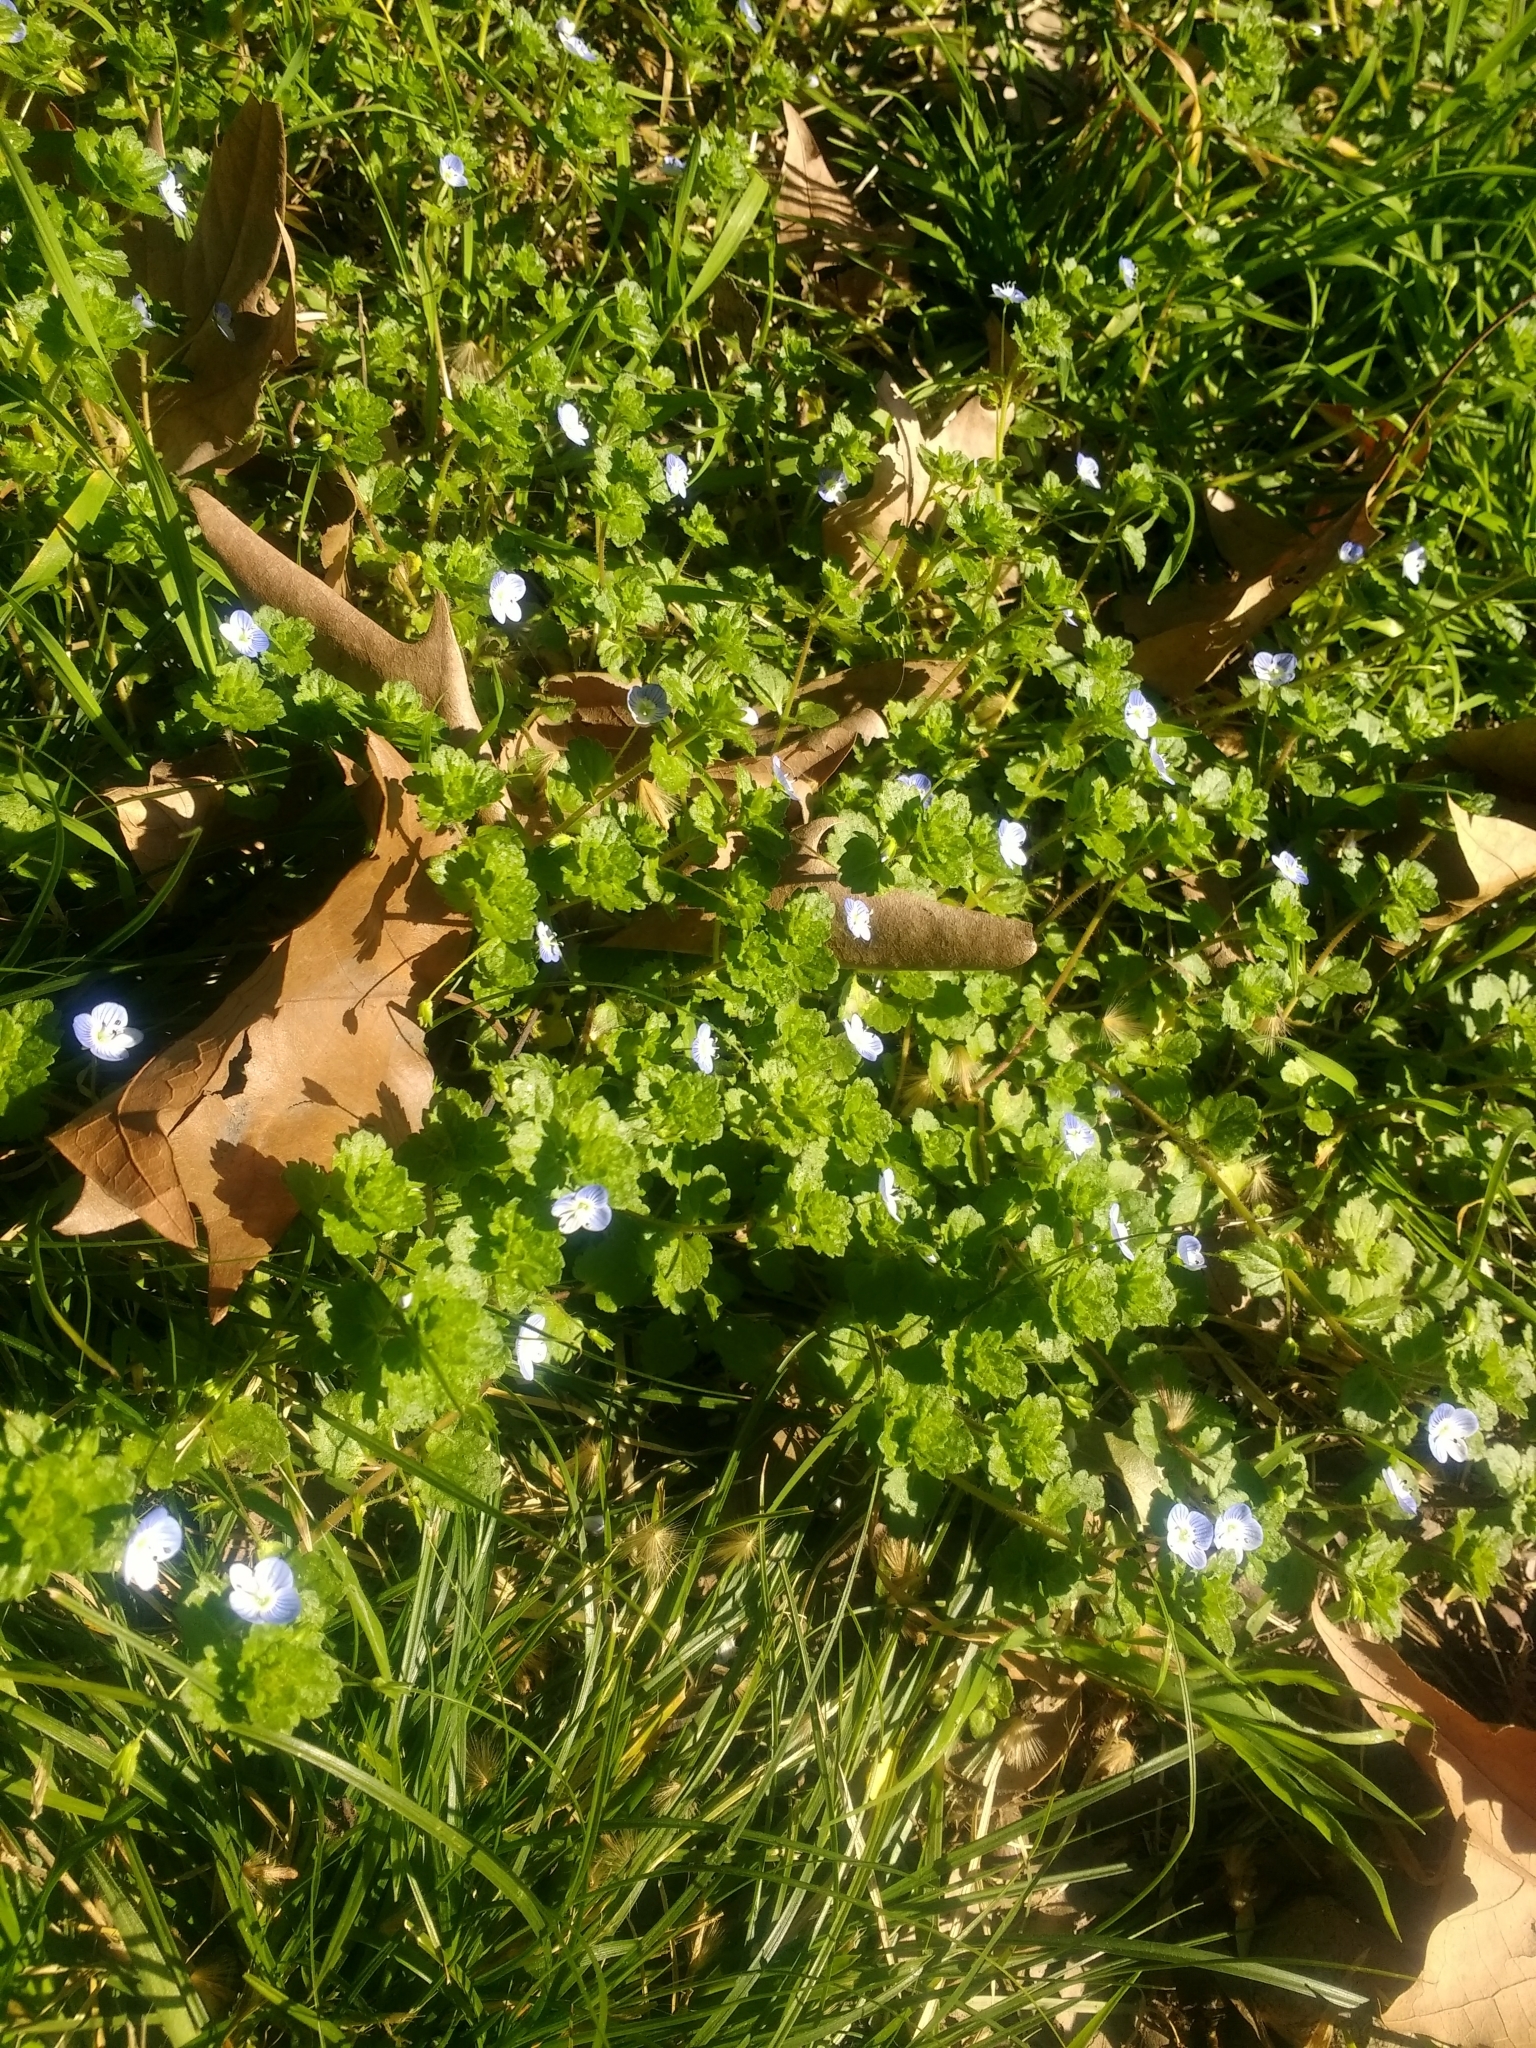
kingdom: Plantae
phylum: Tracheophyta
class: Magnoliopsida
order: Lamiales
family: Plantaginaceae
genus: Veronica
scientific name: Veronica persica
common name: Common field-speedwell
